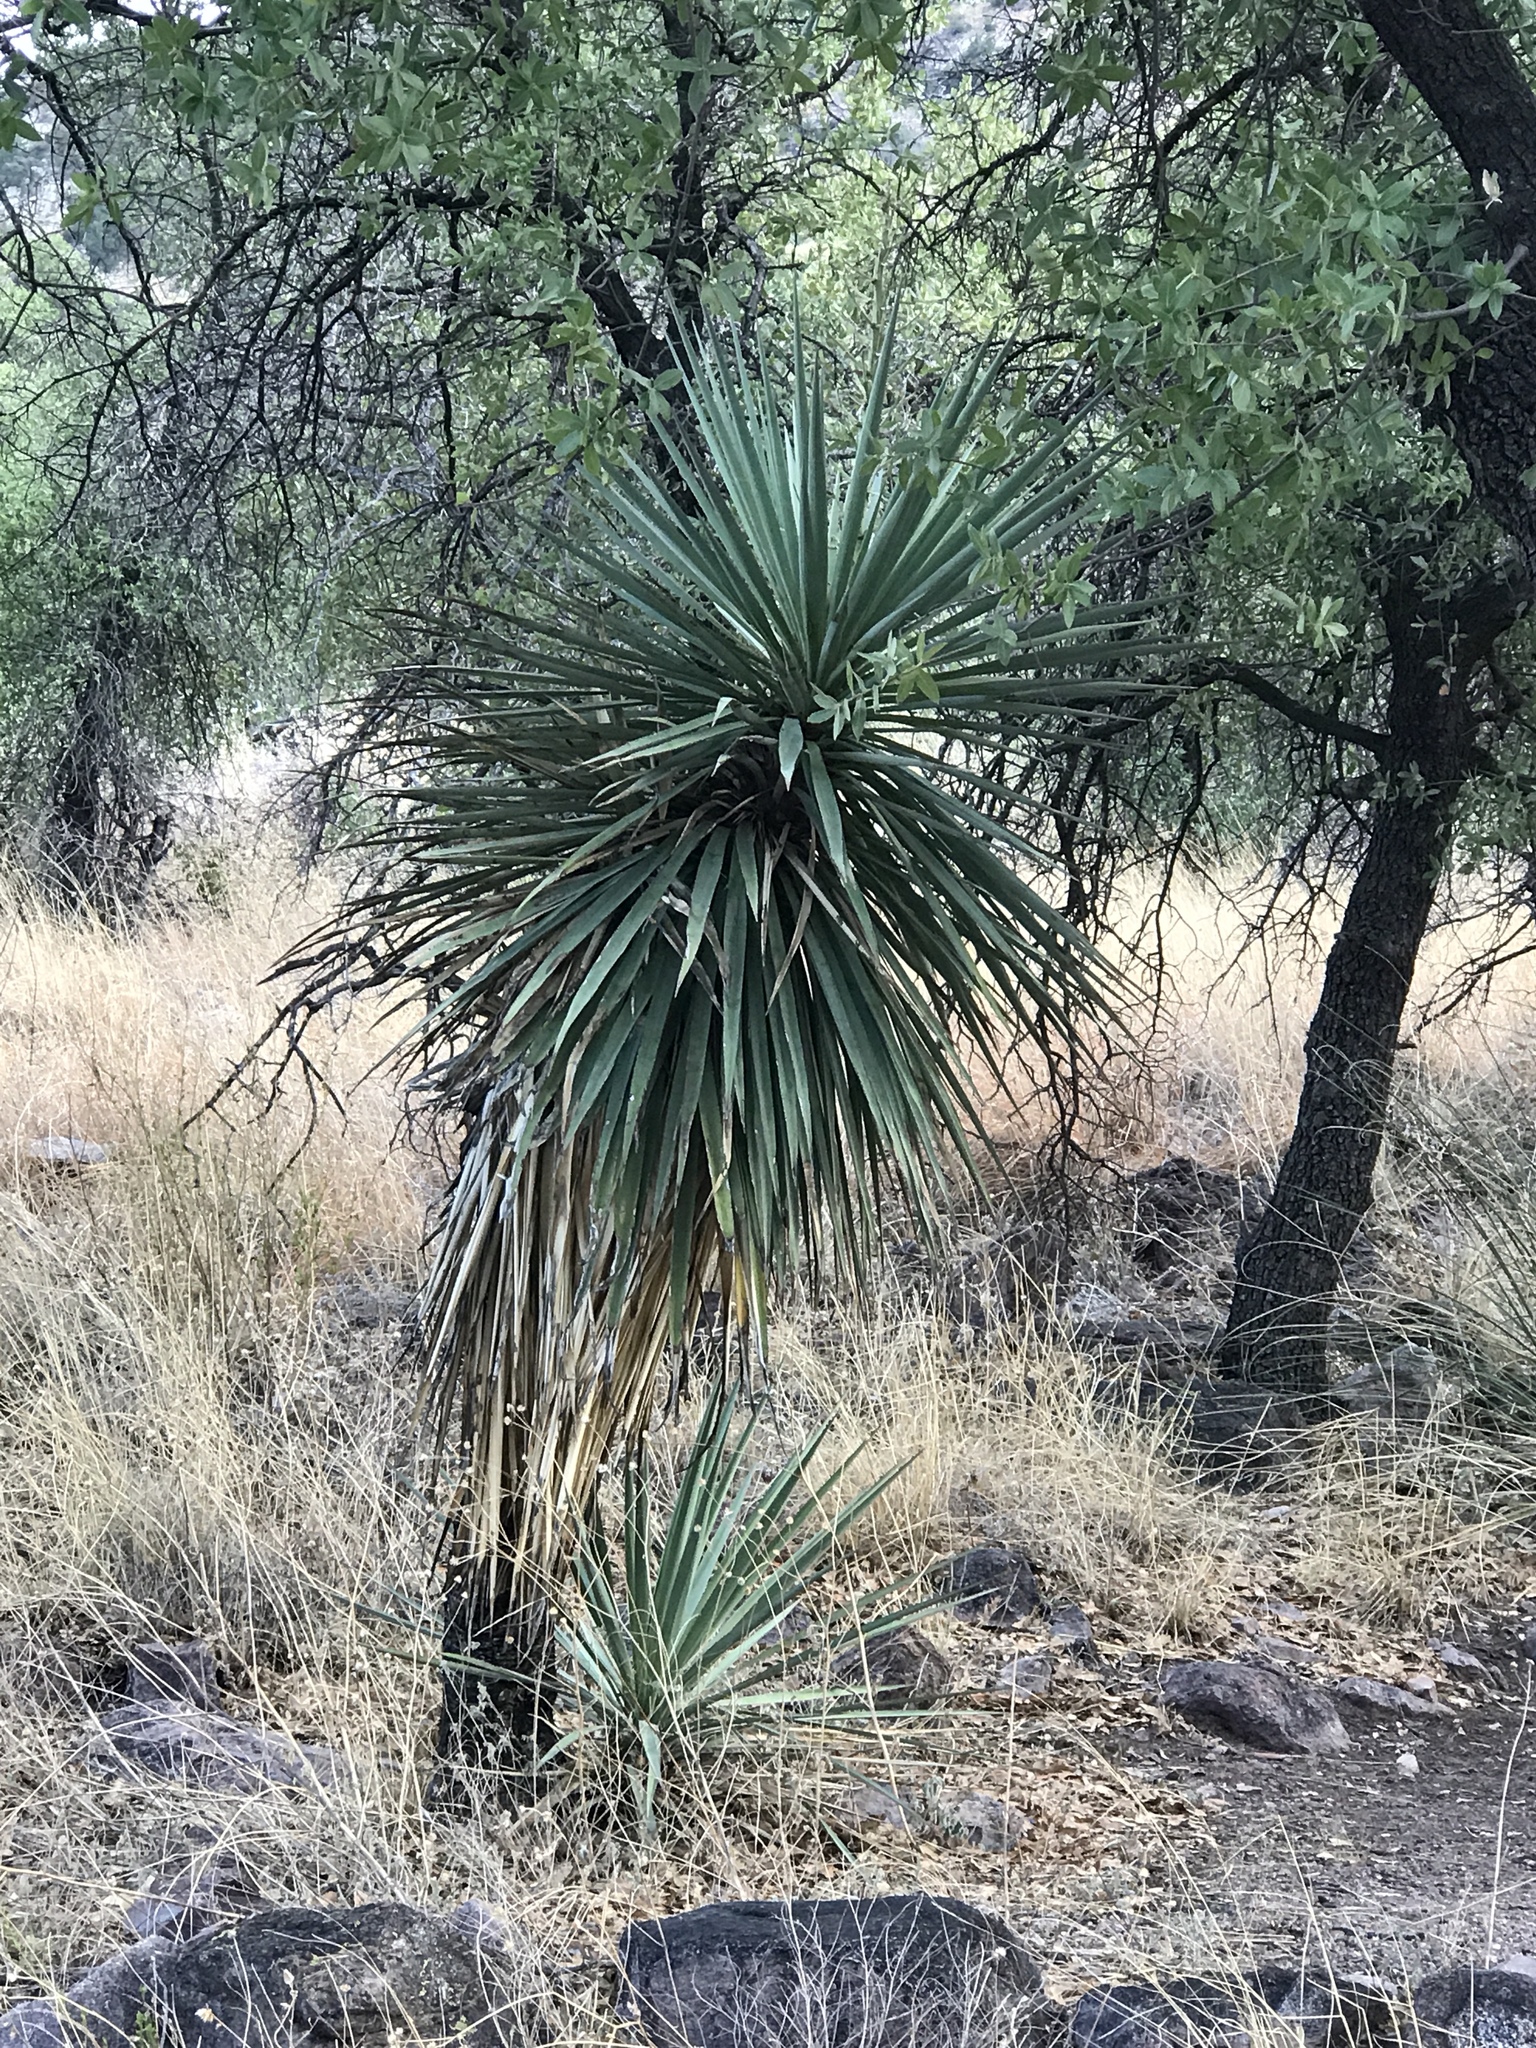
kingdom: Plantae
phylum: Tracheophyta
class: Liliopsida
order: Asparagales
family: Asparagaceae
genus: Yucca
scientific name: Yucca madrensis
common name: Hoary yucca
